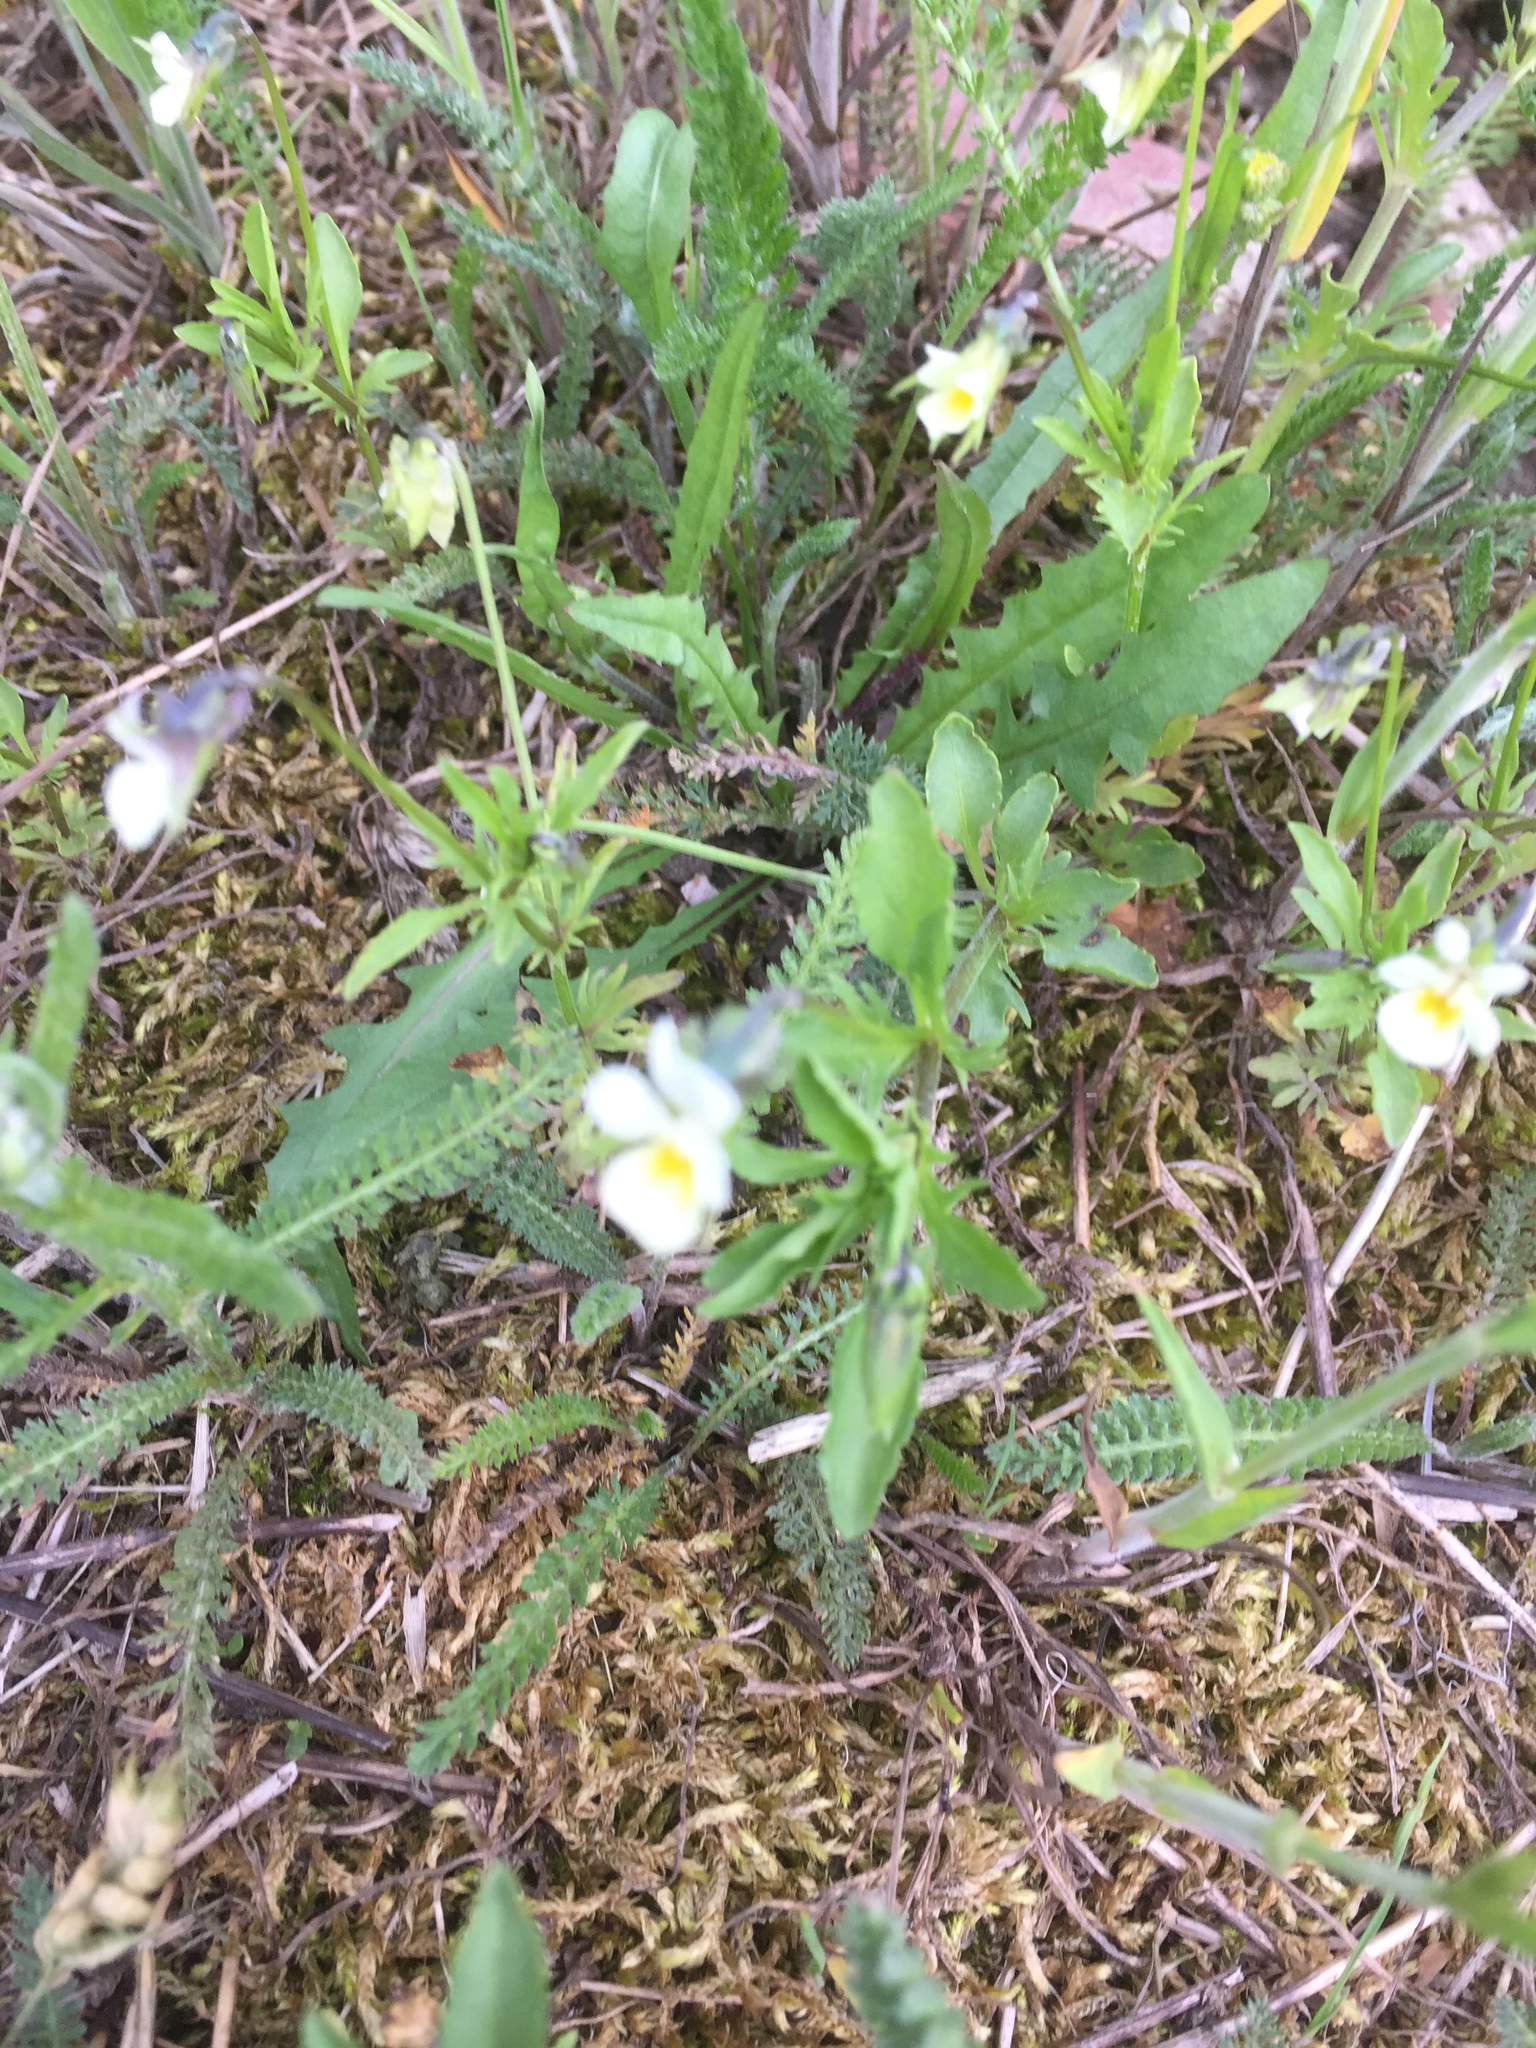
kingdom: Plantae
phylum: Tracheophyta
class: Magnoliopsida
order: Malpighiales
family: Violaceae
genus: Viola
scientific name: Viola arvensis
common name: Field pansy
